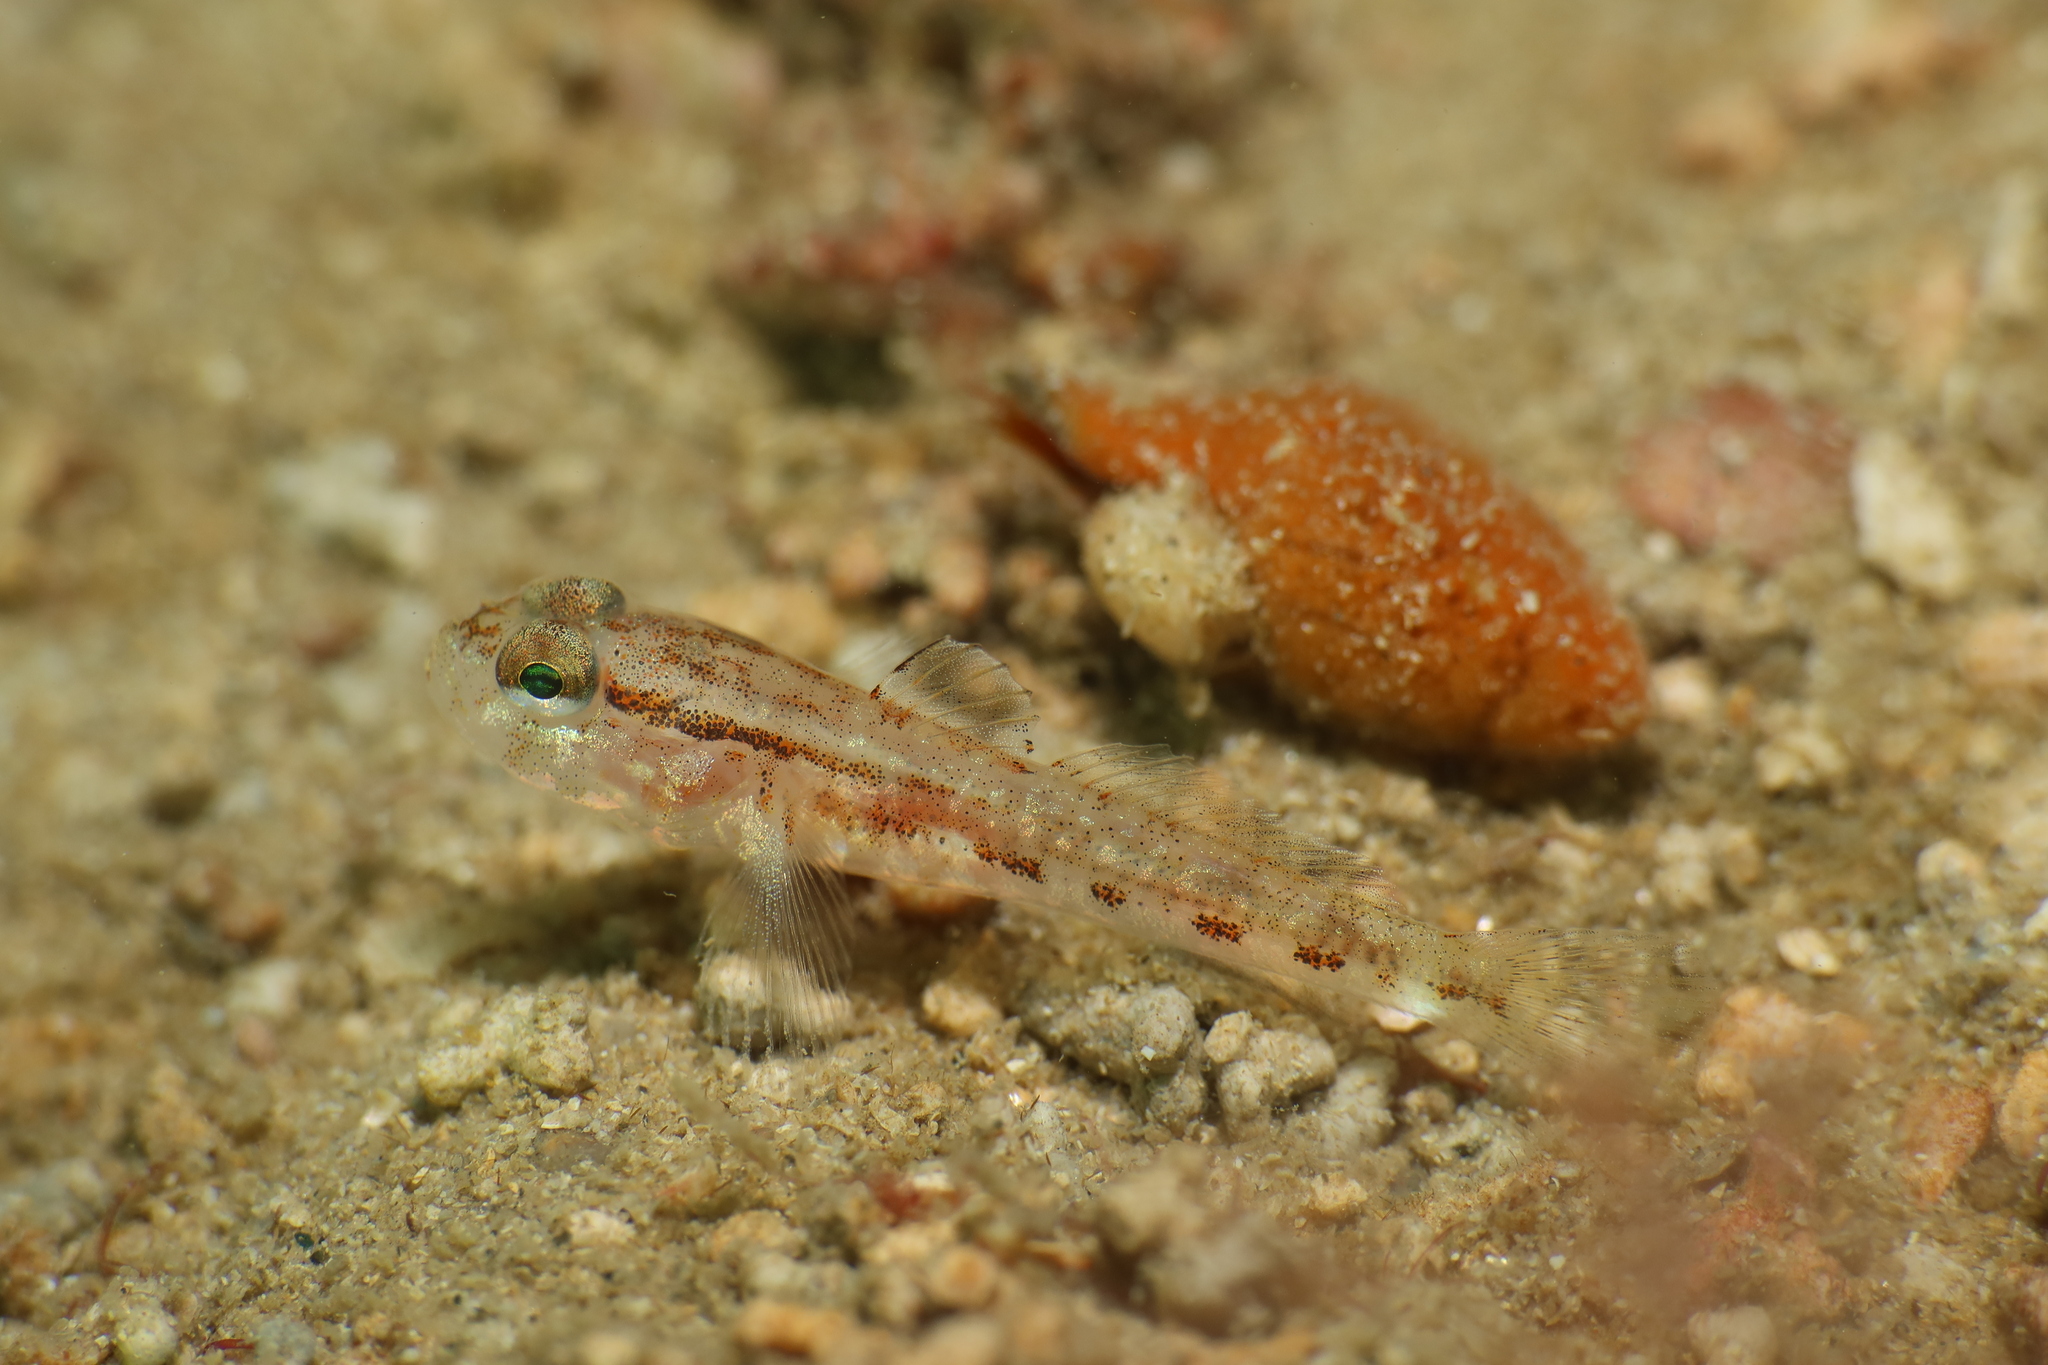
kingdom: Animalia
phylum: Chordata
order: Perciformes
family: Gobiidae
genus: Gobius
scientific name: Gobius gasteveni
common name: Steven's goby
